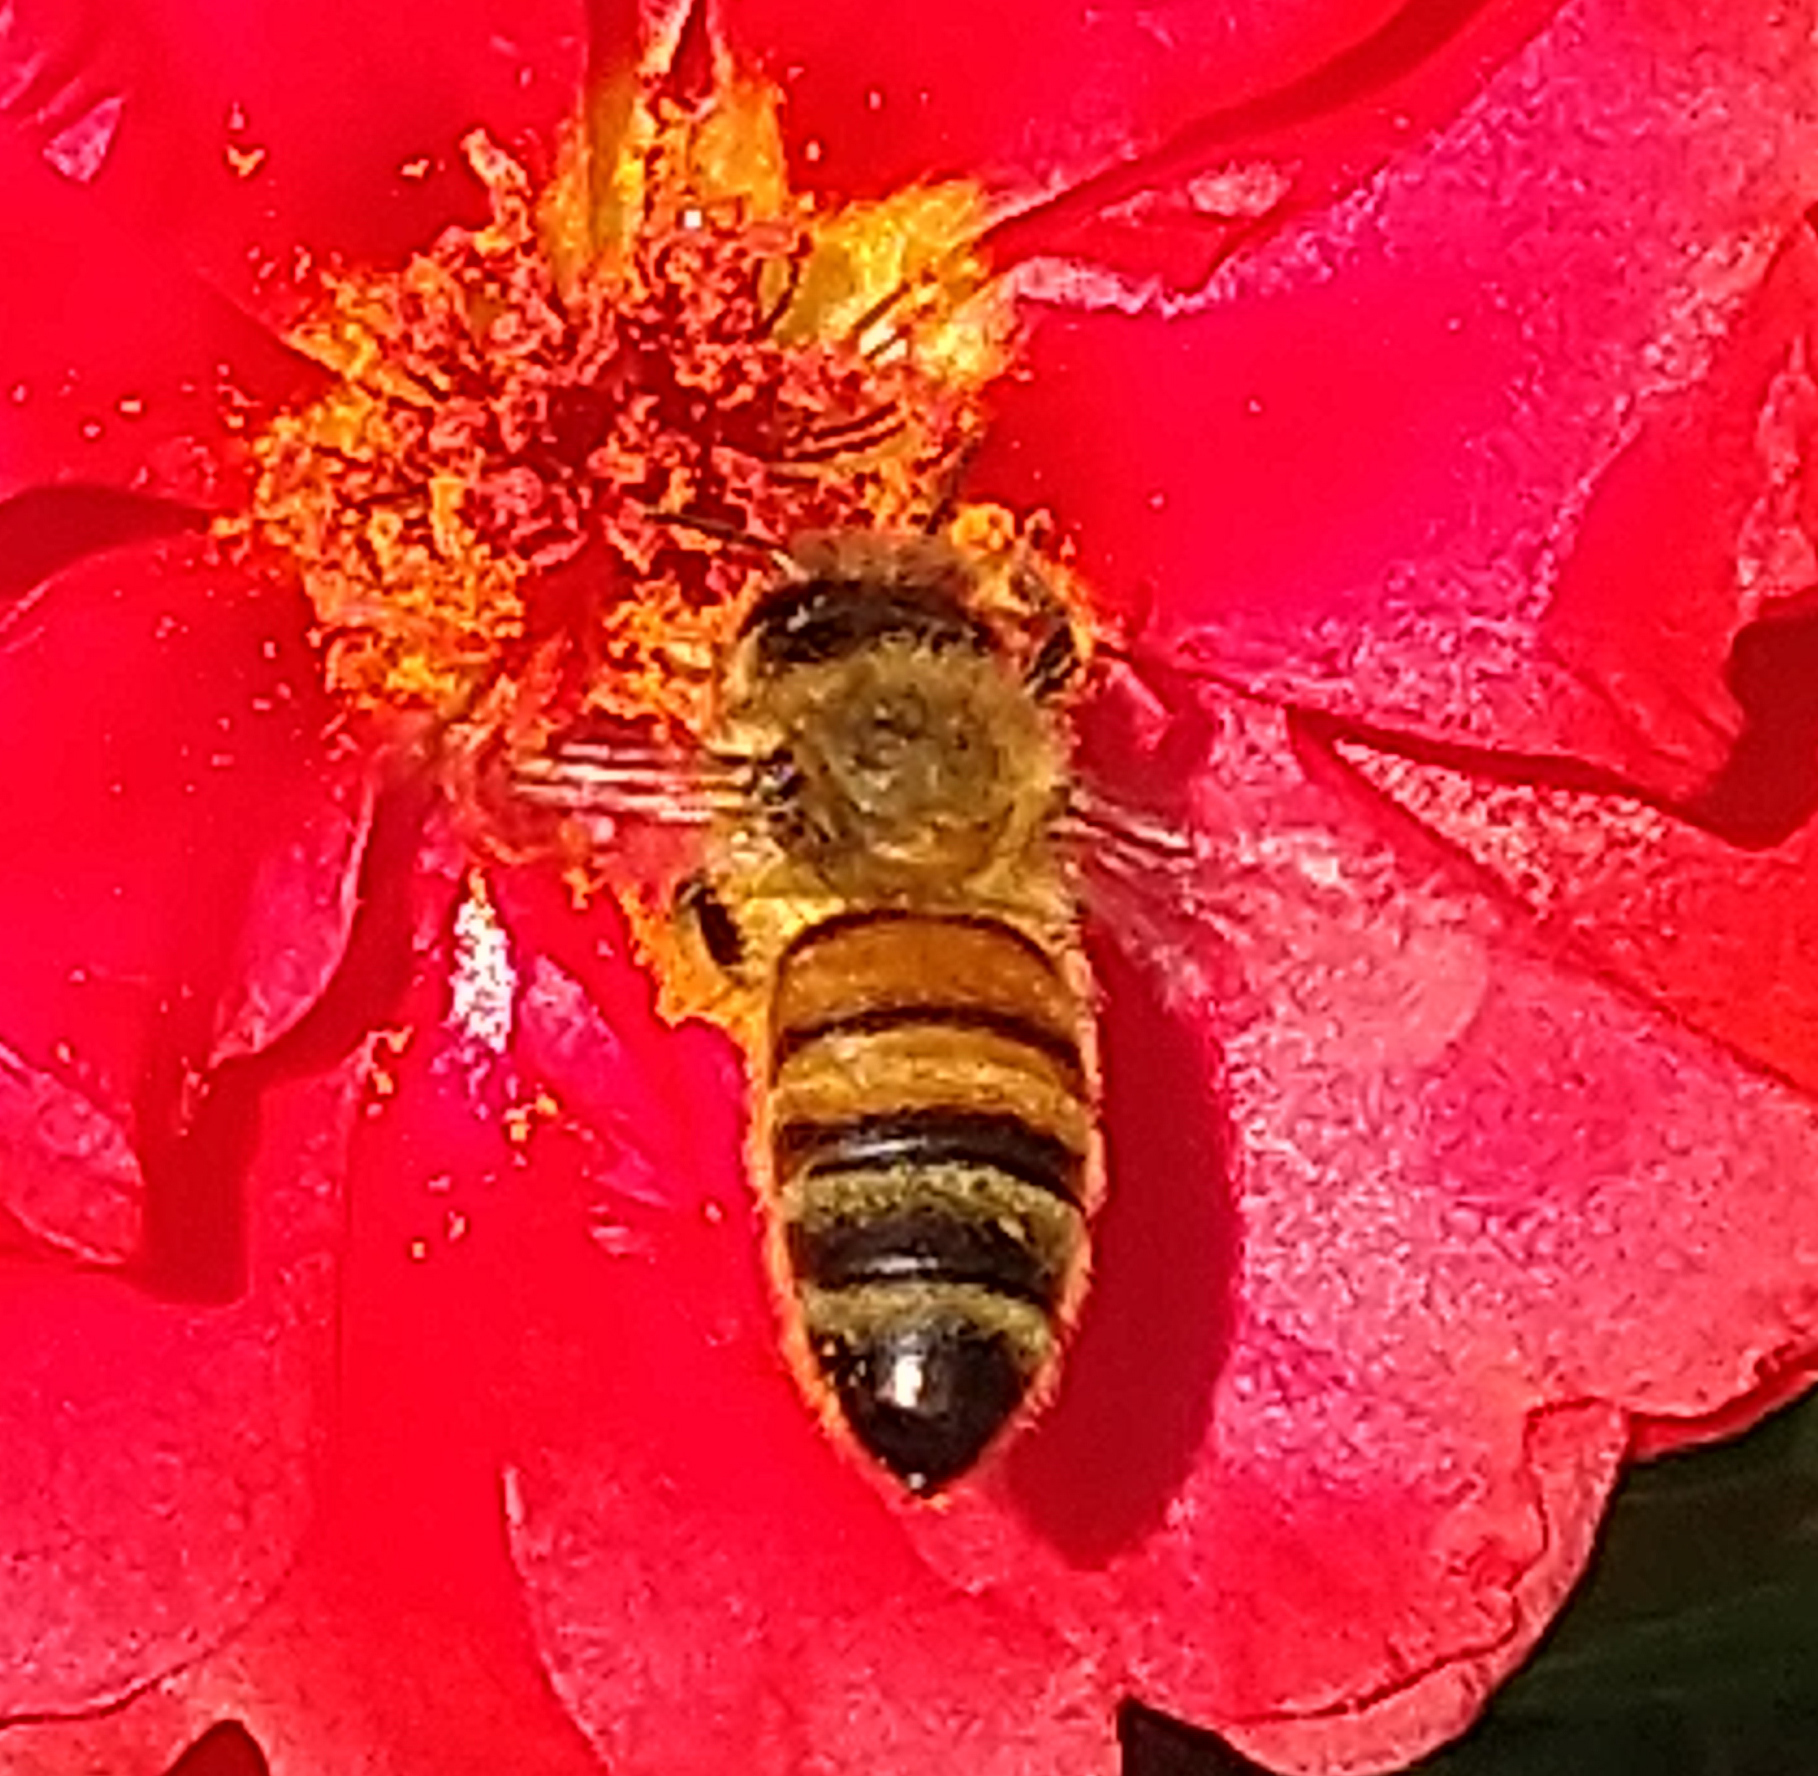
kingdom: Animalia
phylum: Arthropoda
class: Insecta
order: Hymenoptera
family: Apidae
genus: Apis
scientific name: Apis mellifera
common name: Honey bee
